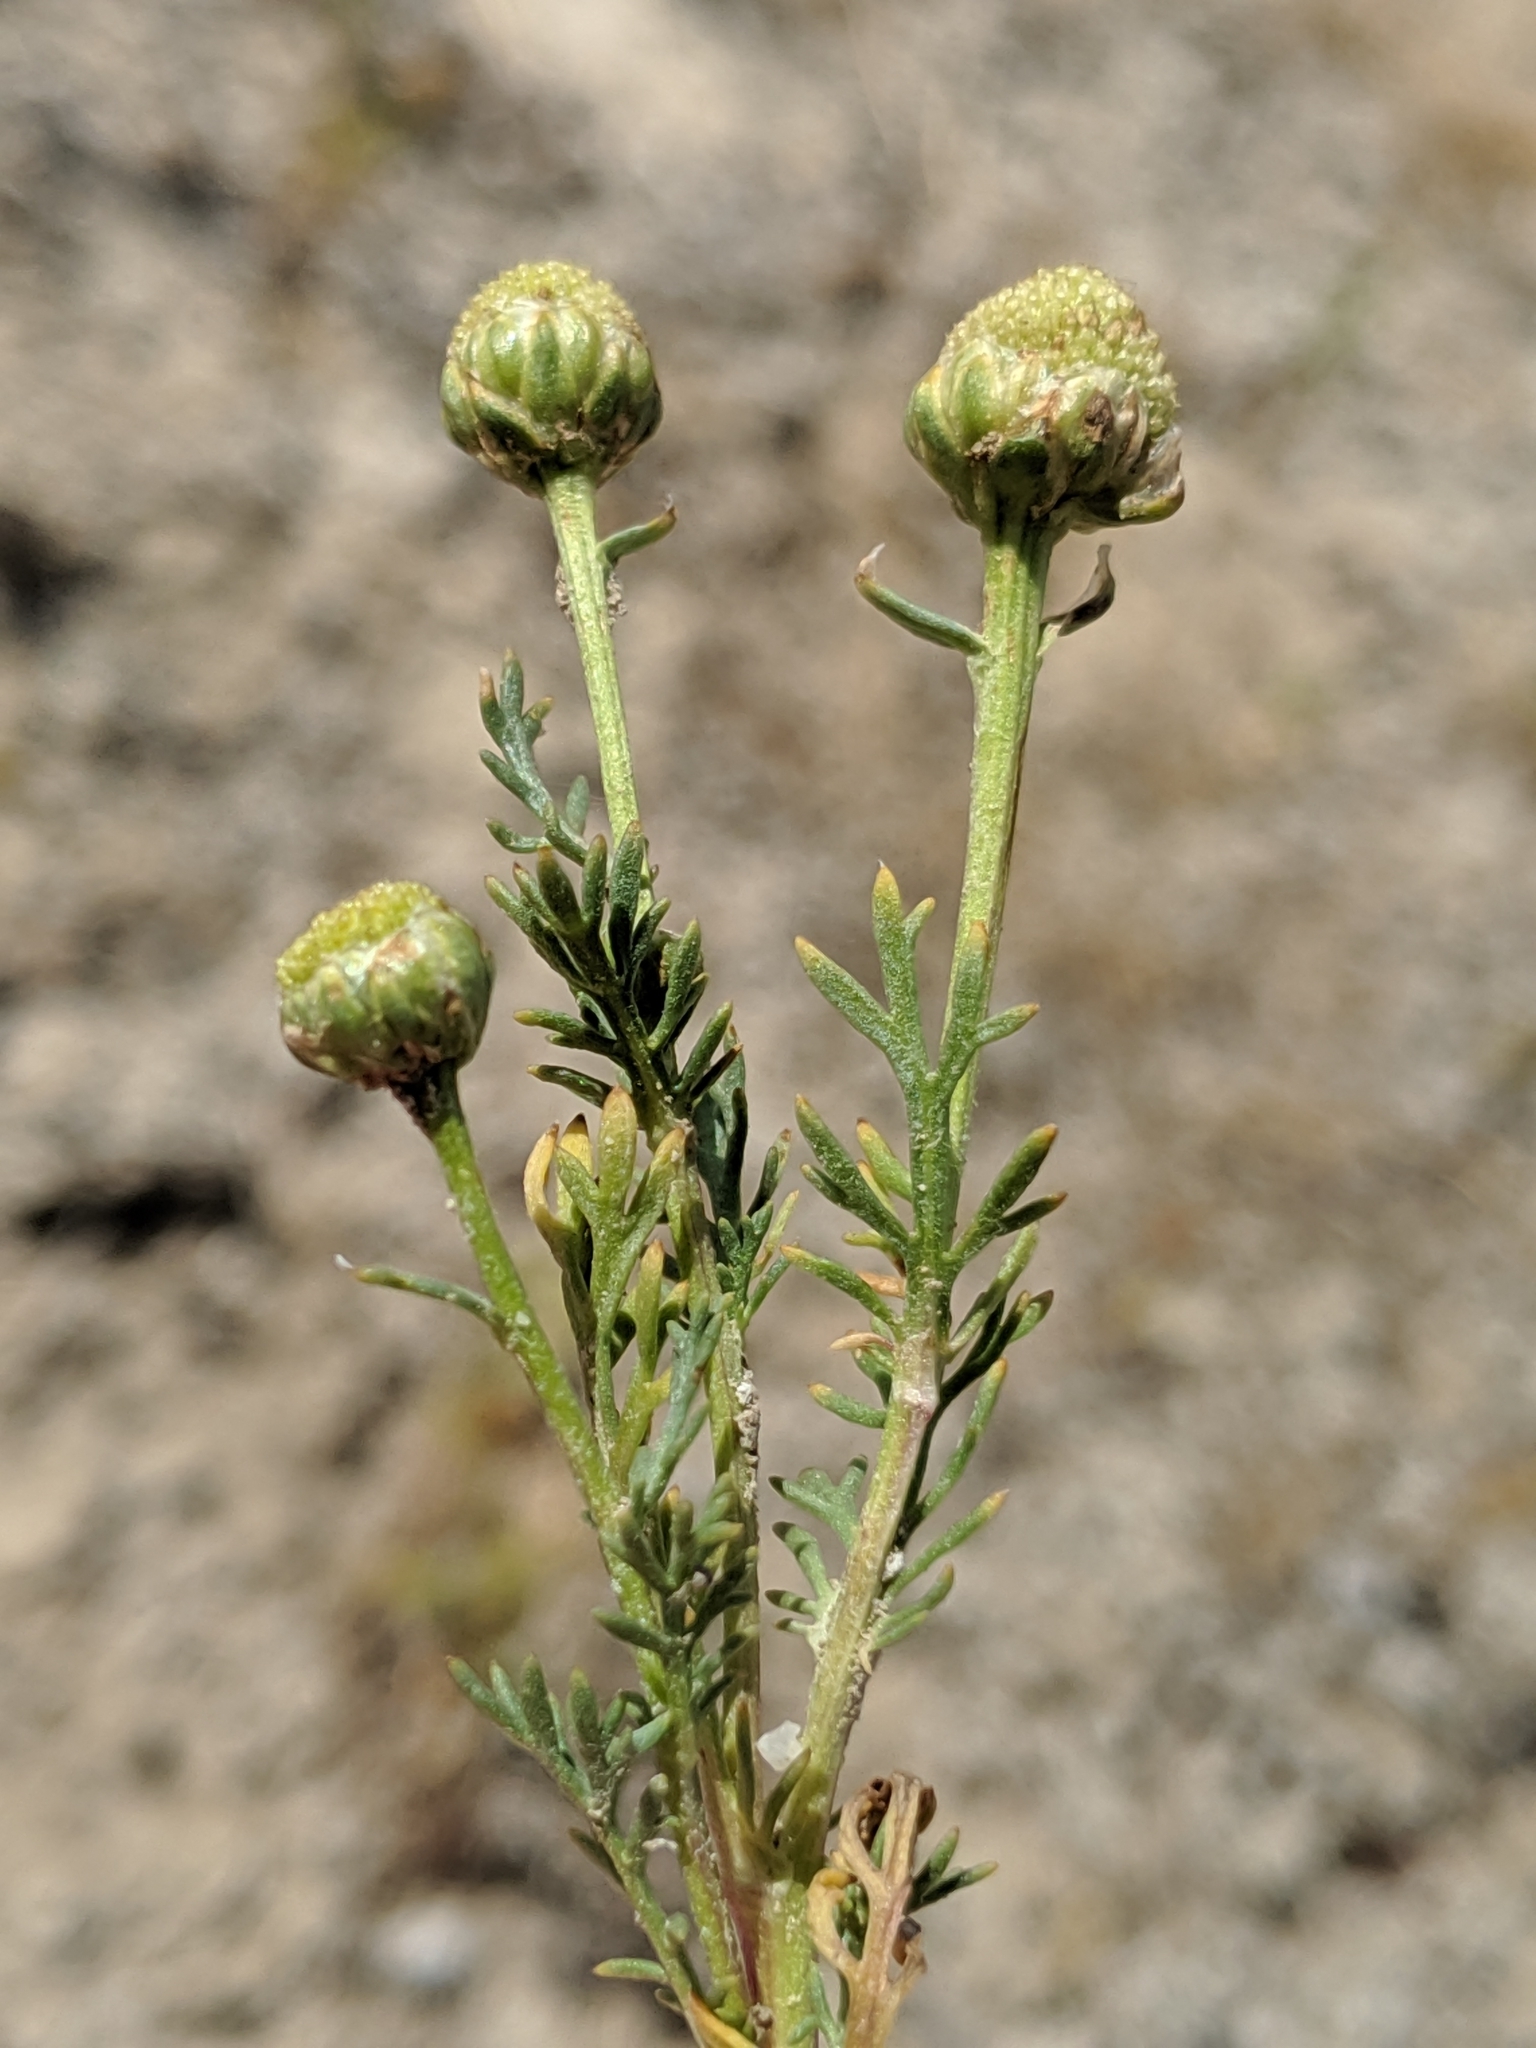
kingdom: Plantae
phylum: Tracheophyta
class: Magnoliopsida
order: Asterales
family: Asteraceae
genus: Matricaria
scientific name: Matricaria occidentalis
